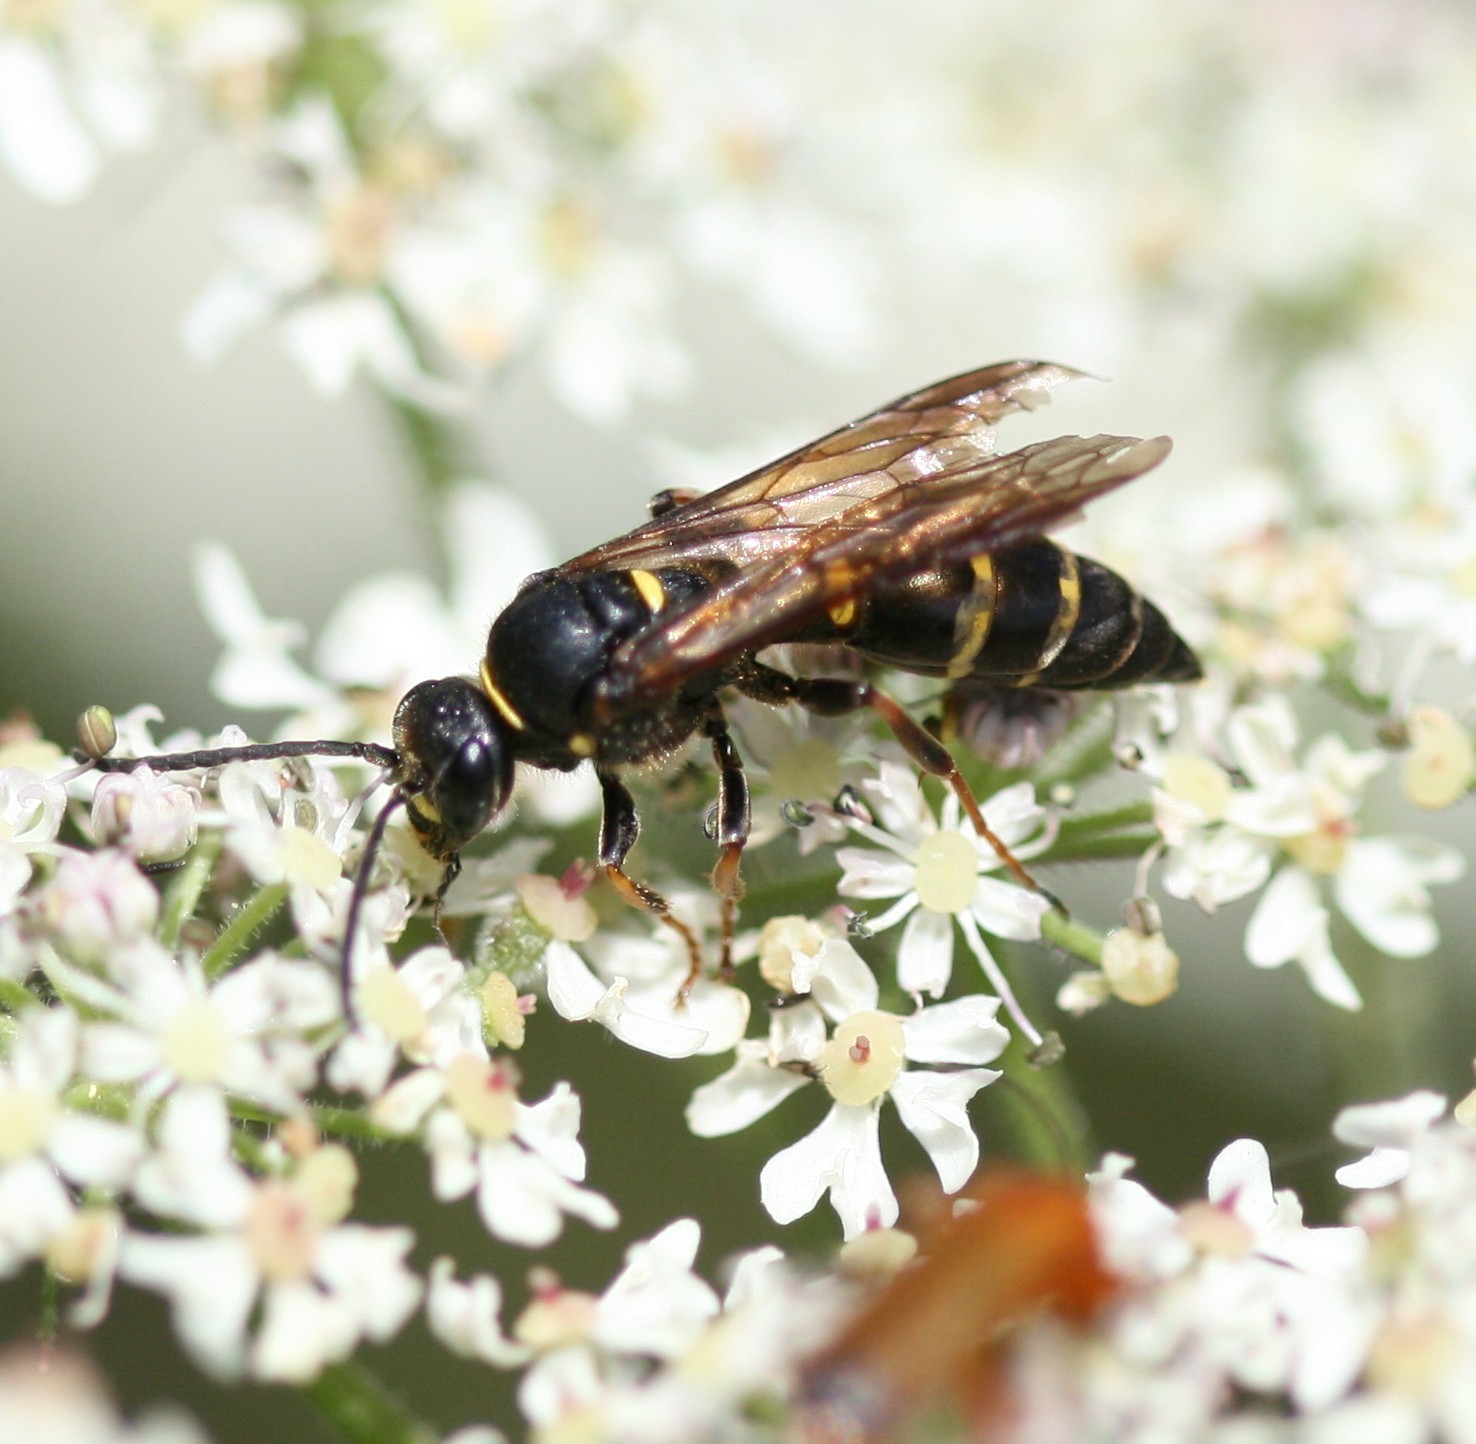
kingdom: Animalia
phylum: Arthropoda
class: Insecta
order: Hymenoptera
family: Crabronidae
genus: Argogorytes
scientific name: Argogorytes mystaceus
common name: Field digger wasp
